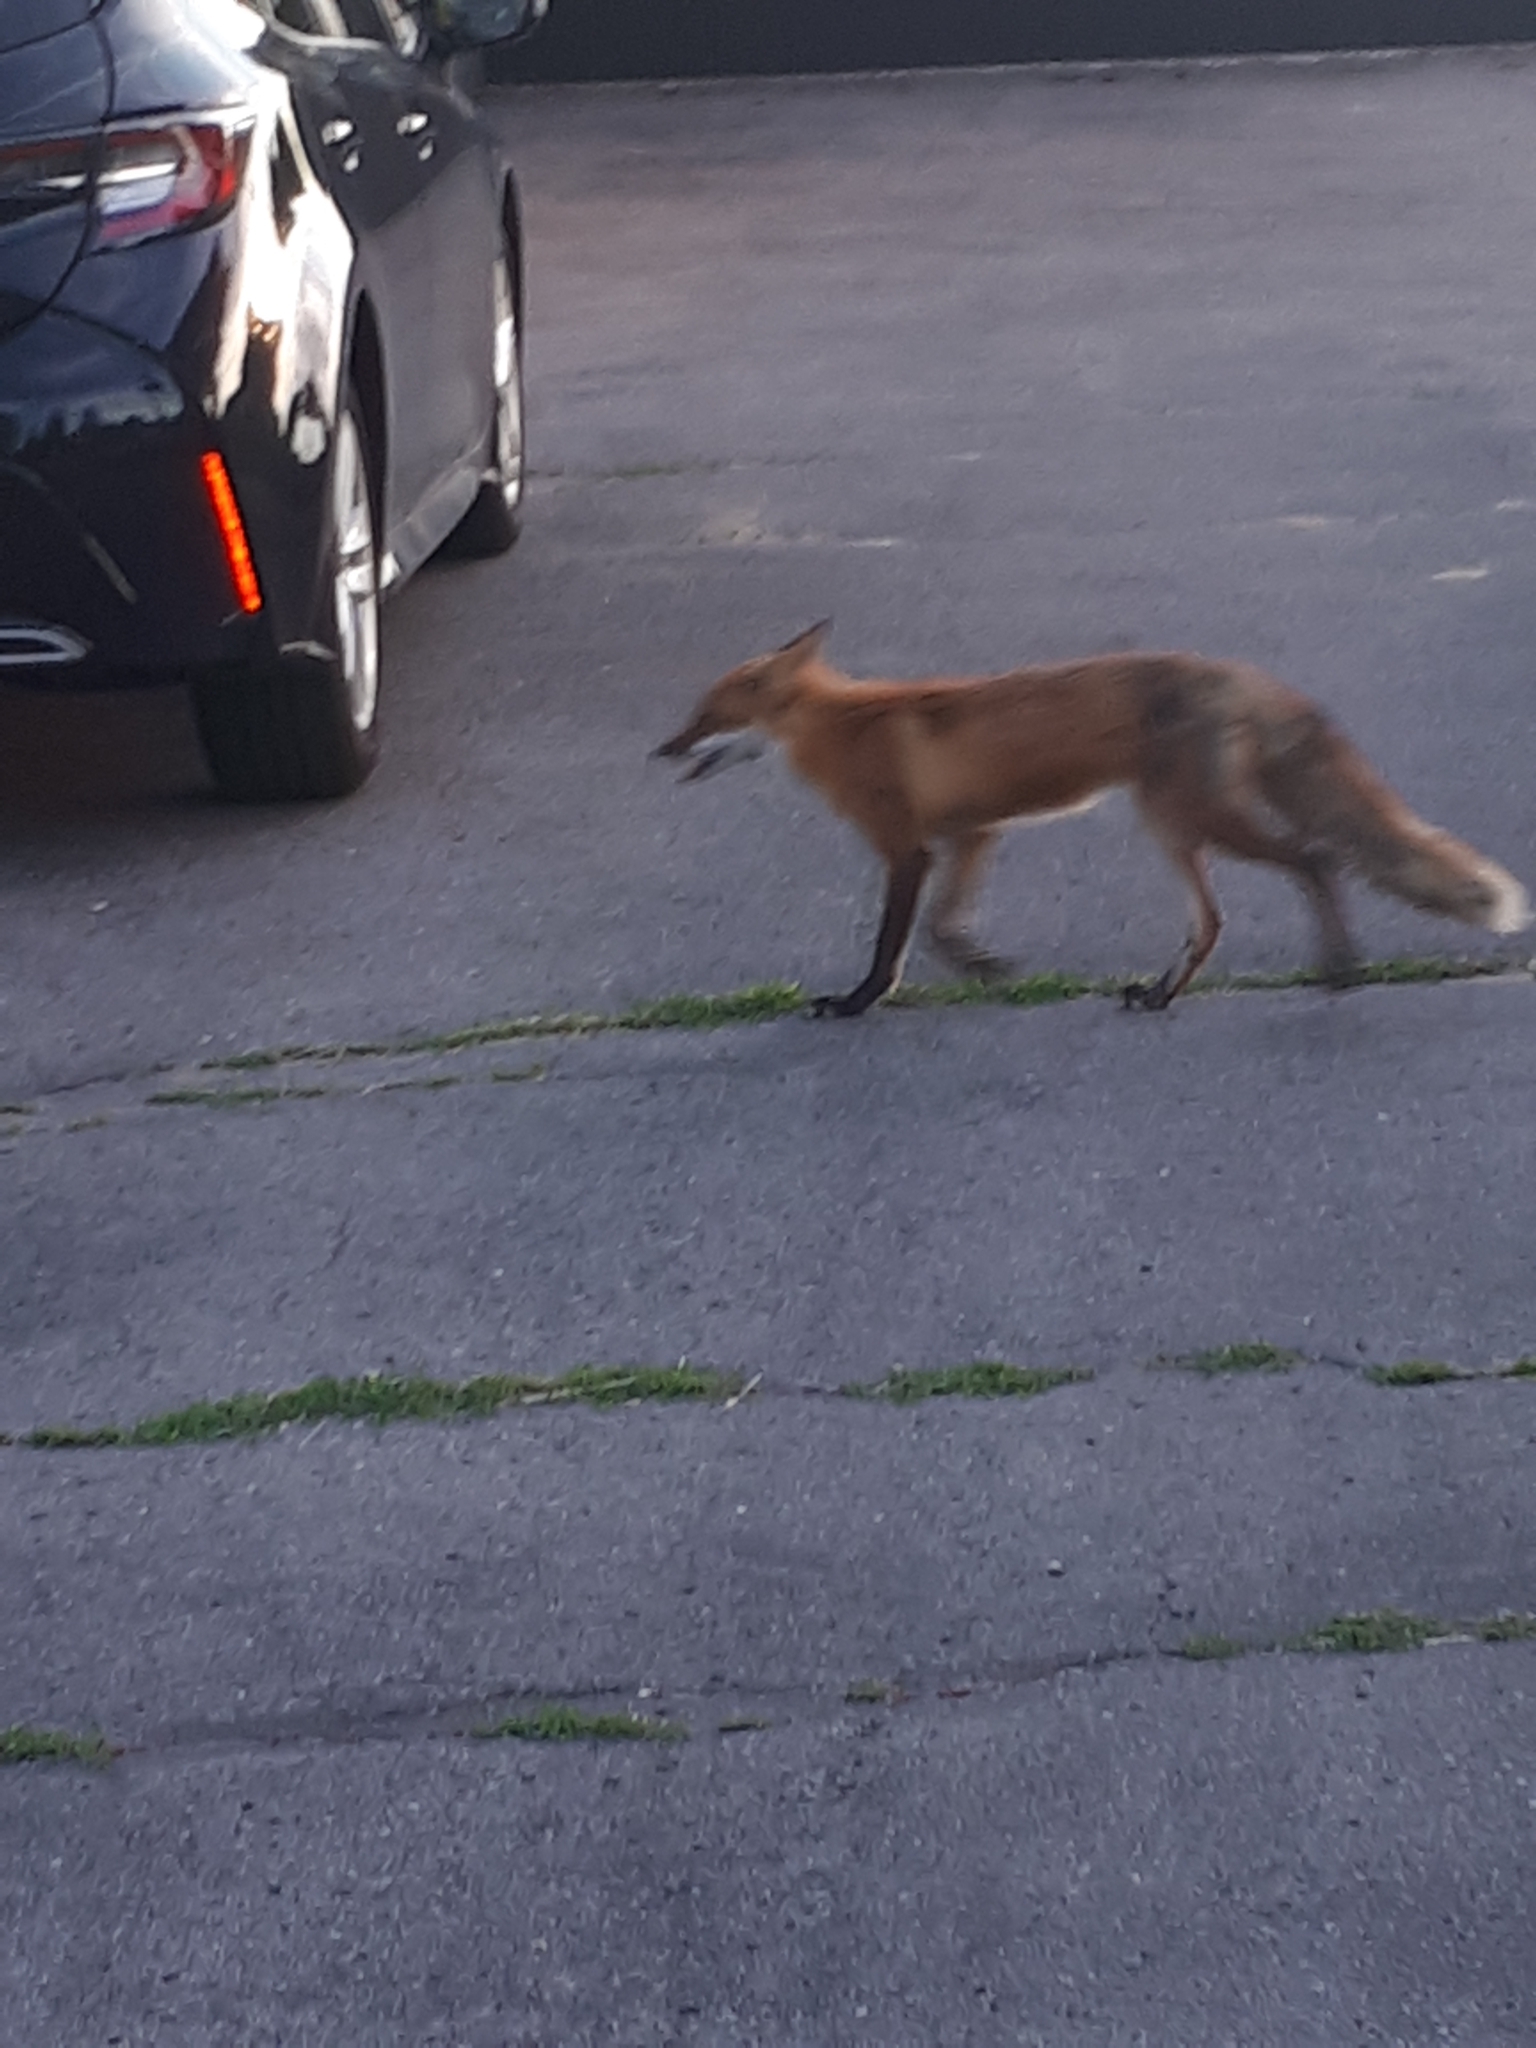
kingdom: Animalia
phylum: Chordata
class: Mammalia
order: Carnivora
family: Canidae
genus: Vulpes
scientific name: Vulpes vulpes
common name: Red fox
